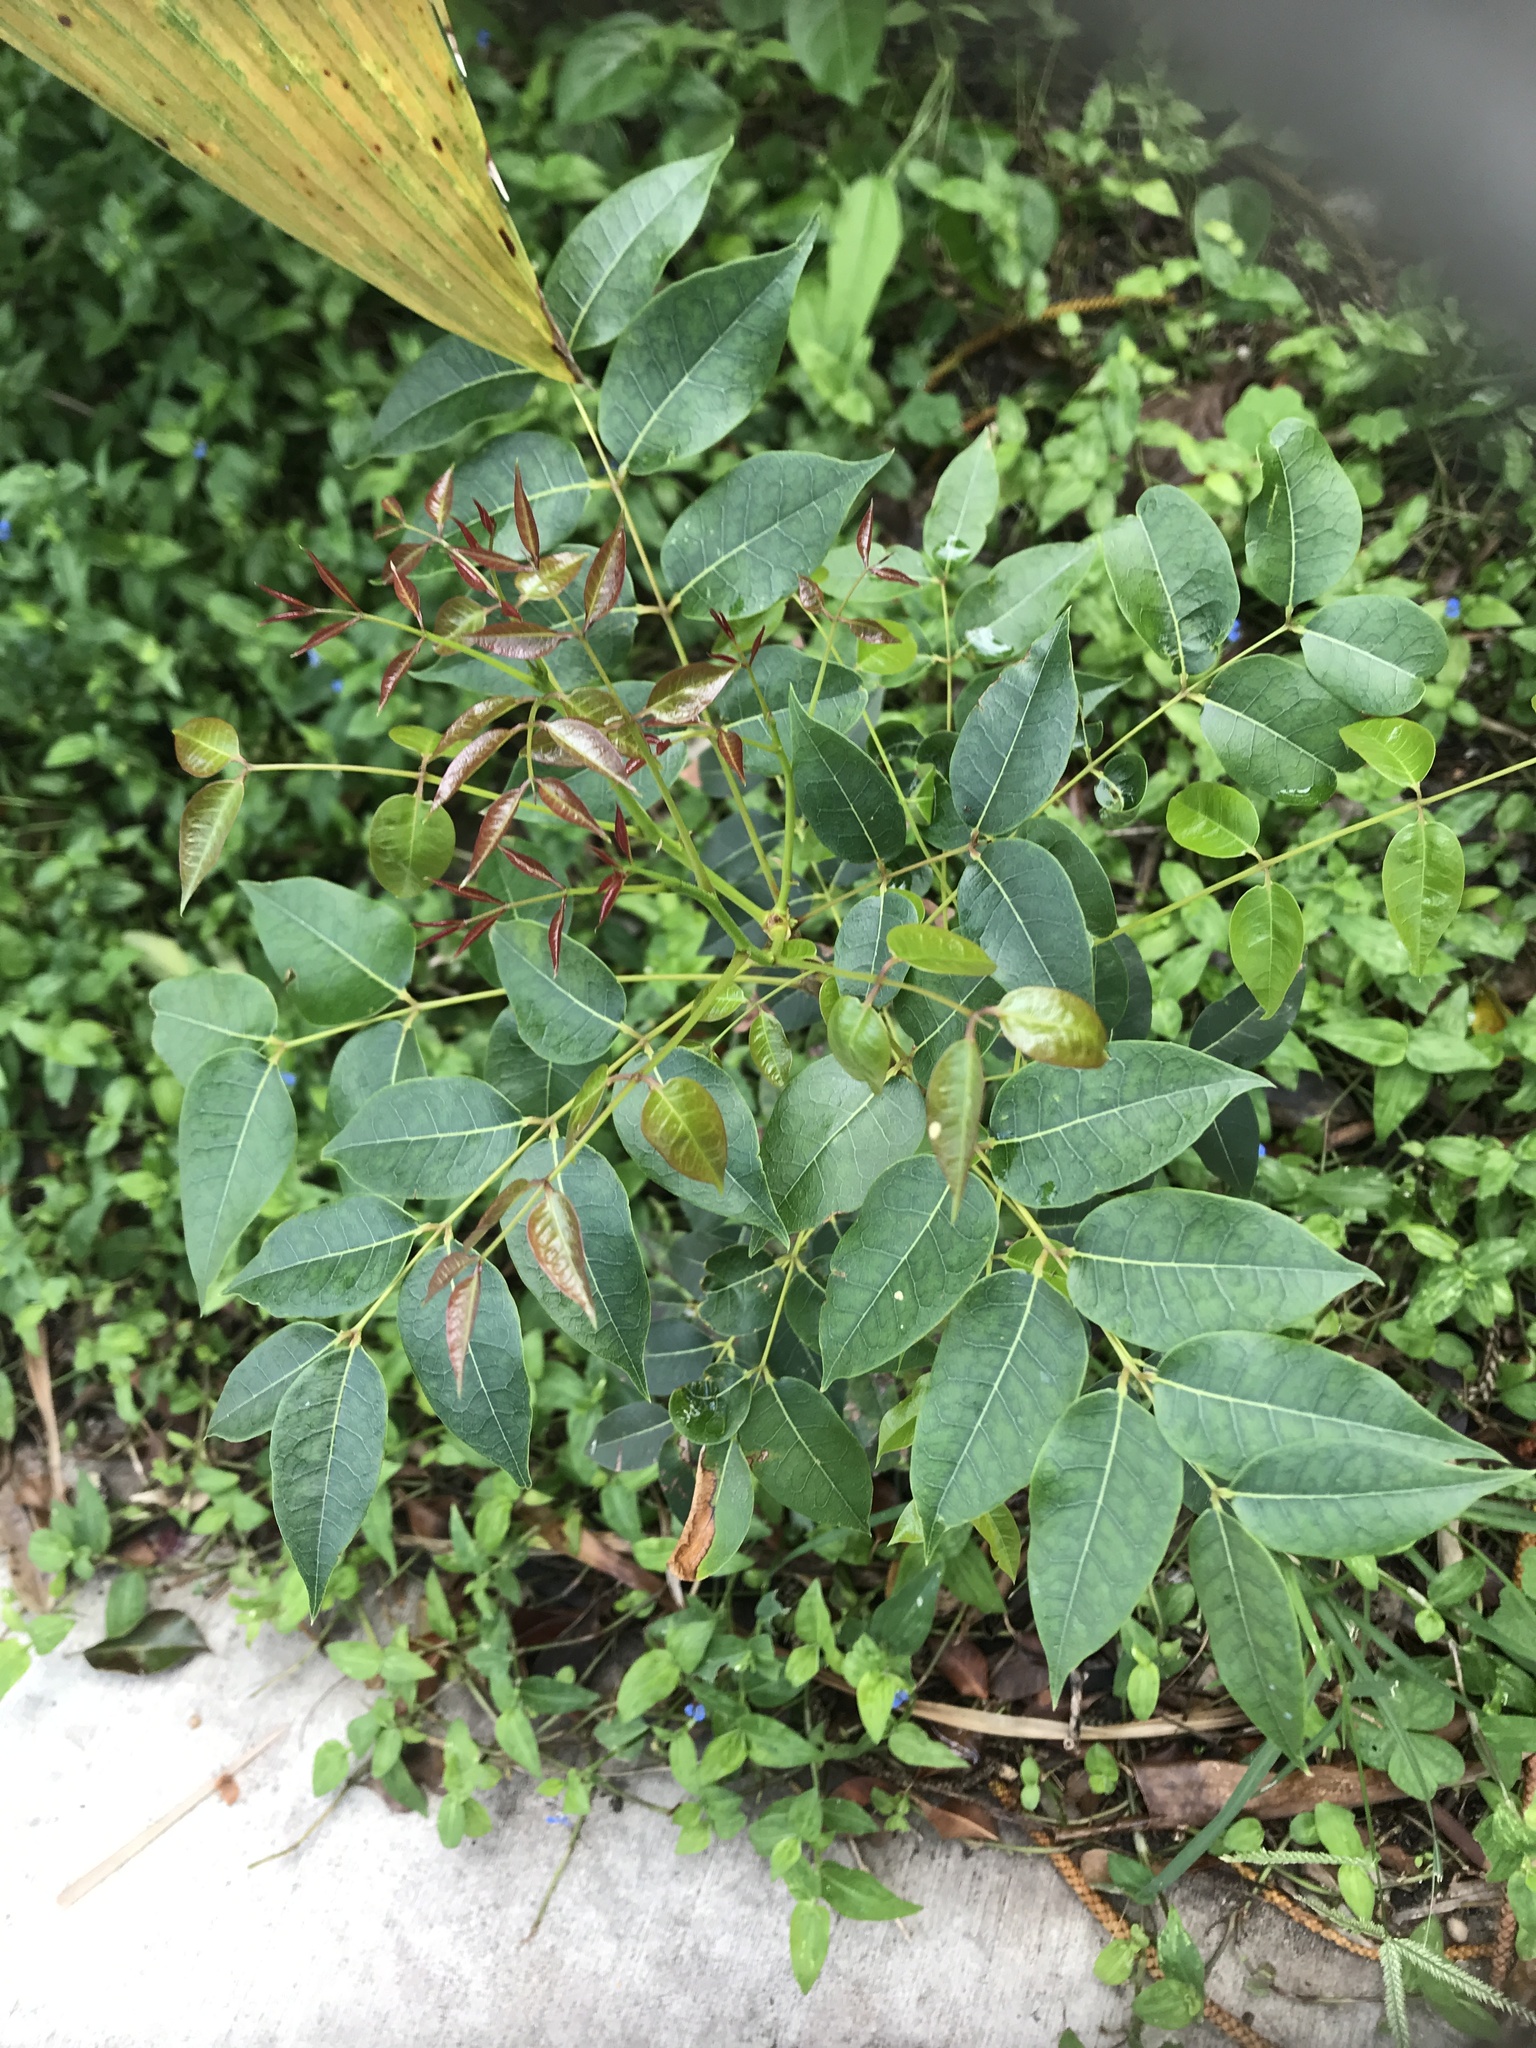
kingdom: Plantae
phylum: Tracheophyta
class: Magnoliopsida
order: Sapindales
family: Meliaceae
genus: Swietenia
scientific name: Swietenia mahagoni
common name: West indian mahogany
